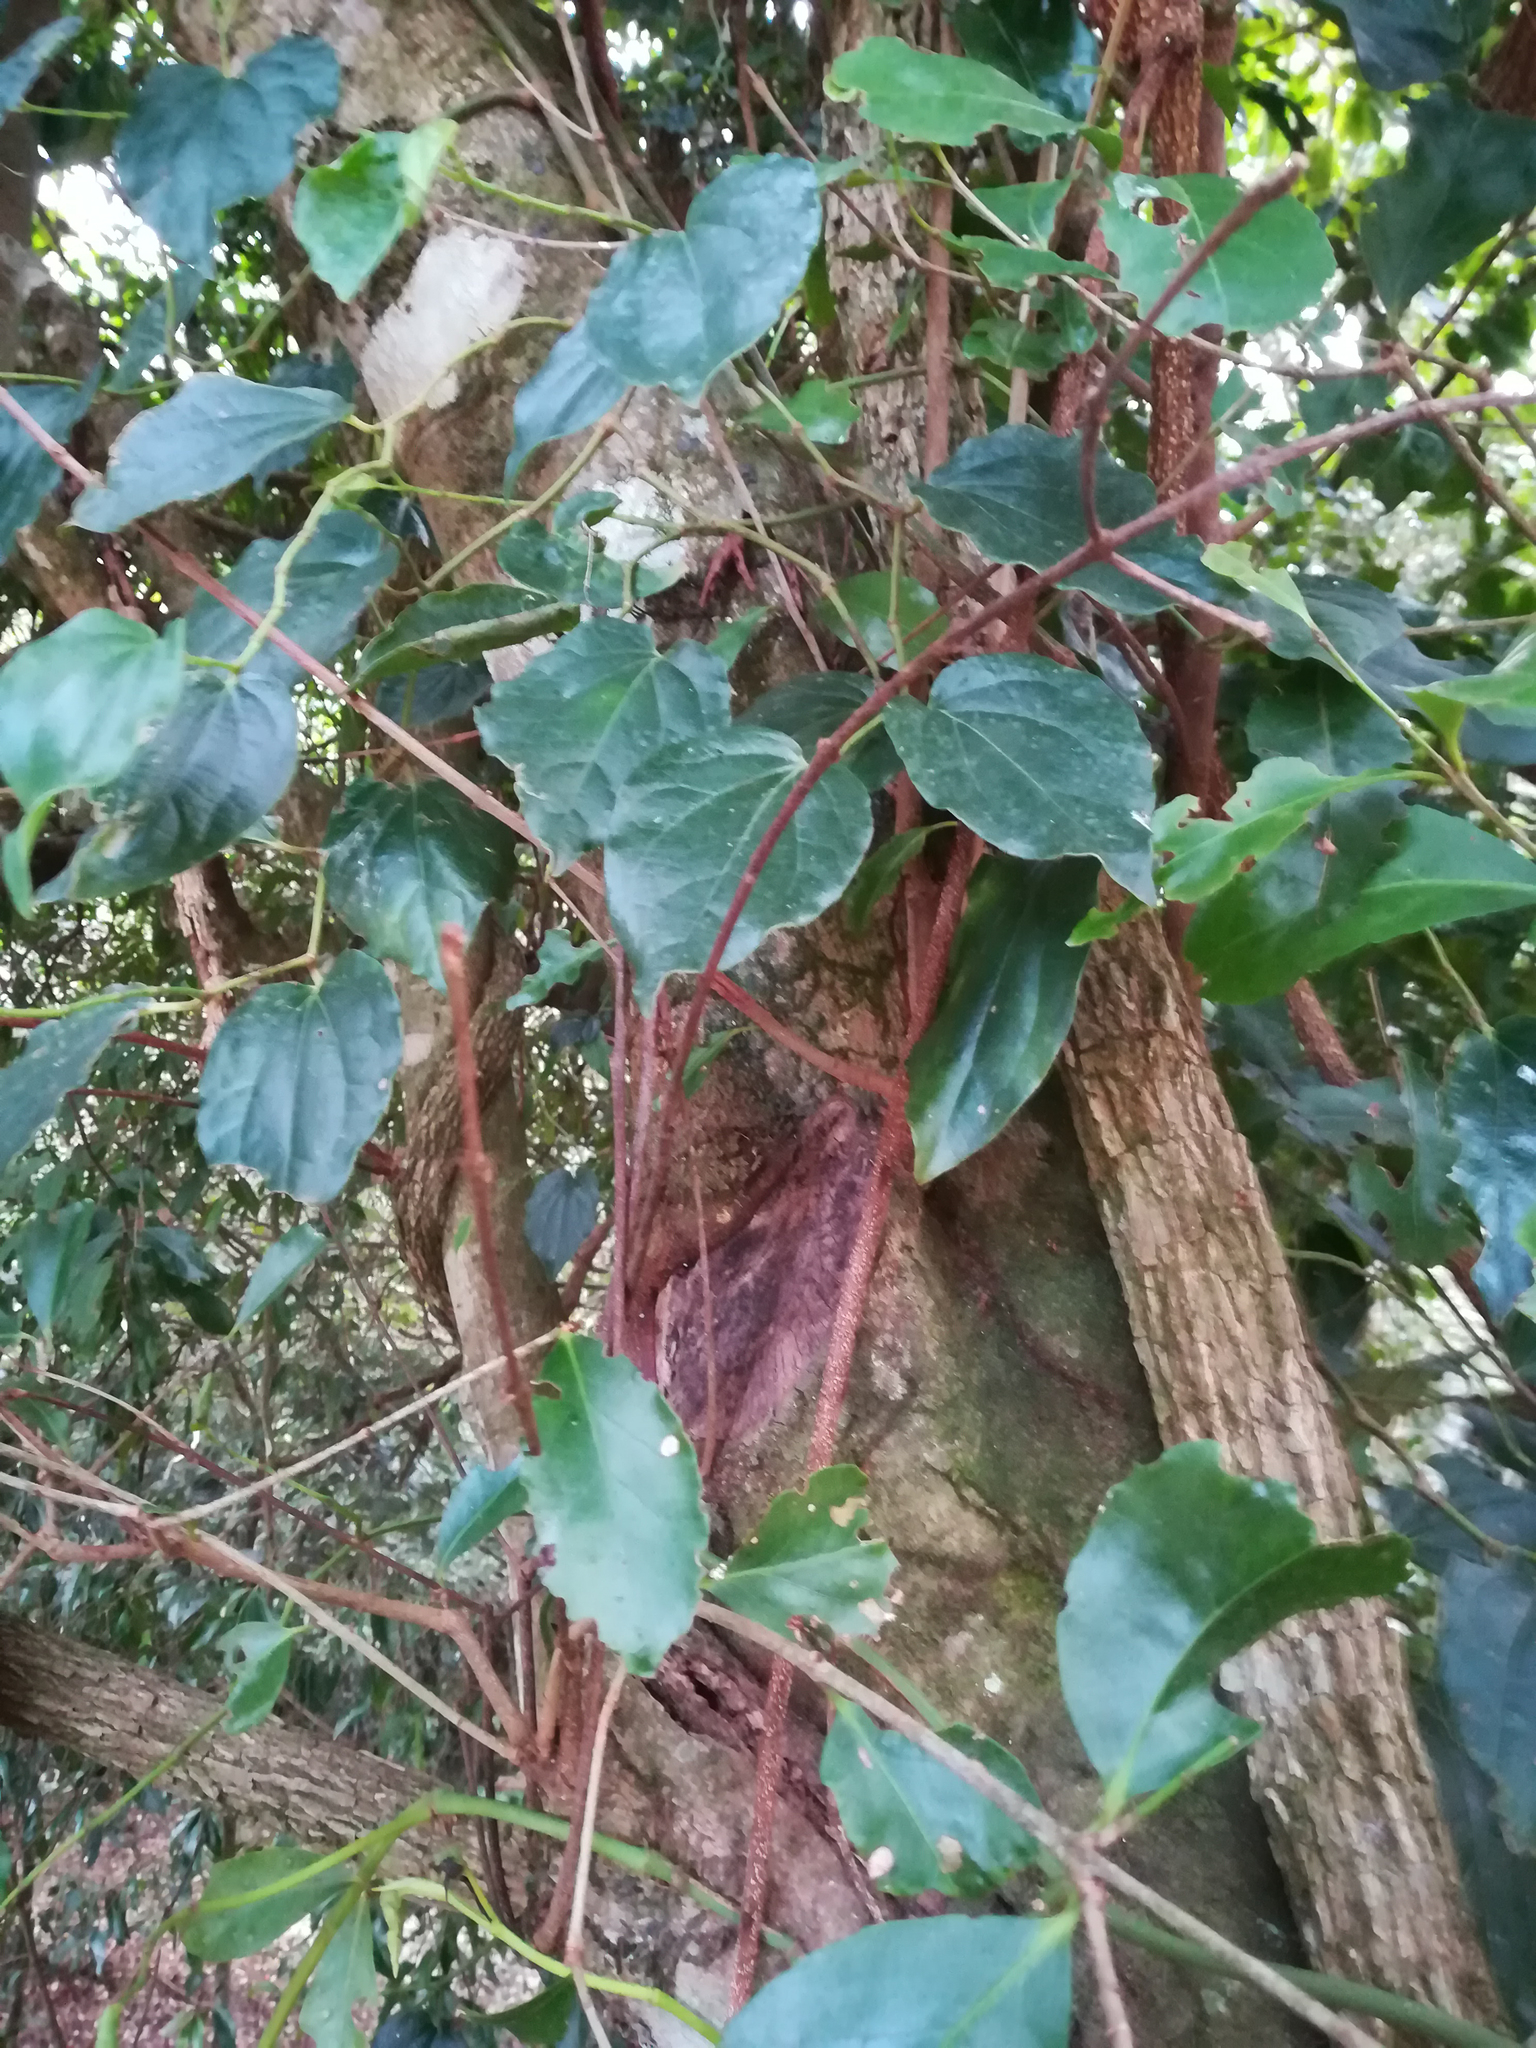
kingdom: Plantae
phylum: Tracheophyta
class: Magnoliopsida
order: Celastrales
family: Celastraceae
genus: Elaeodendron
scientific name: Elaeodendron australe
